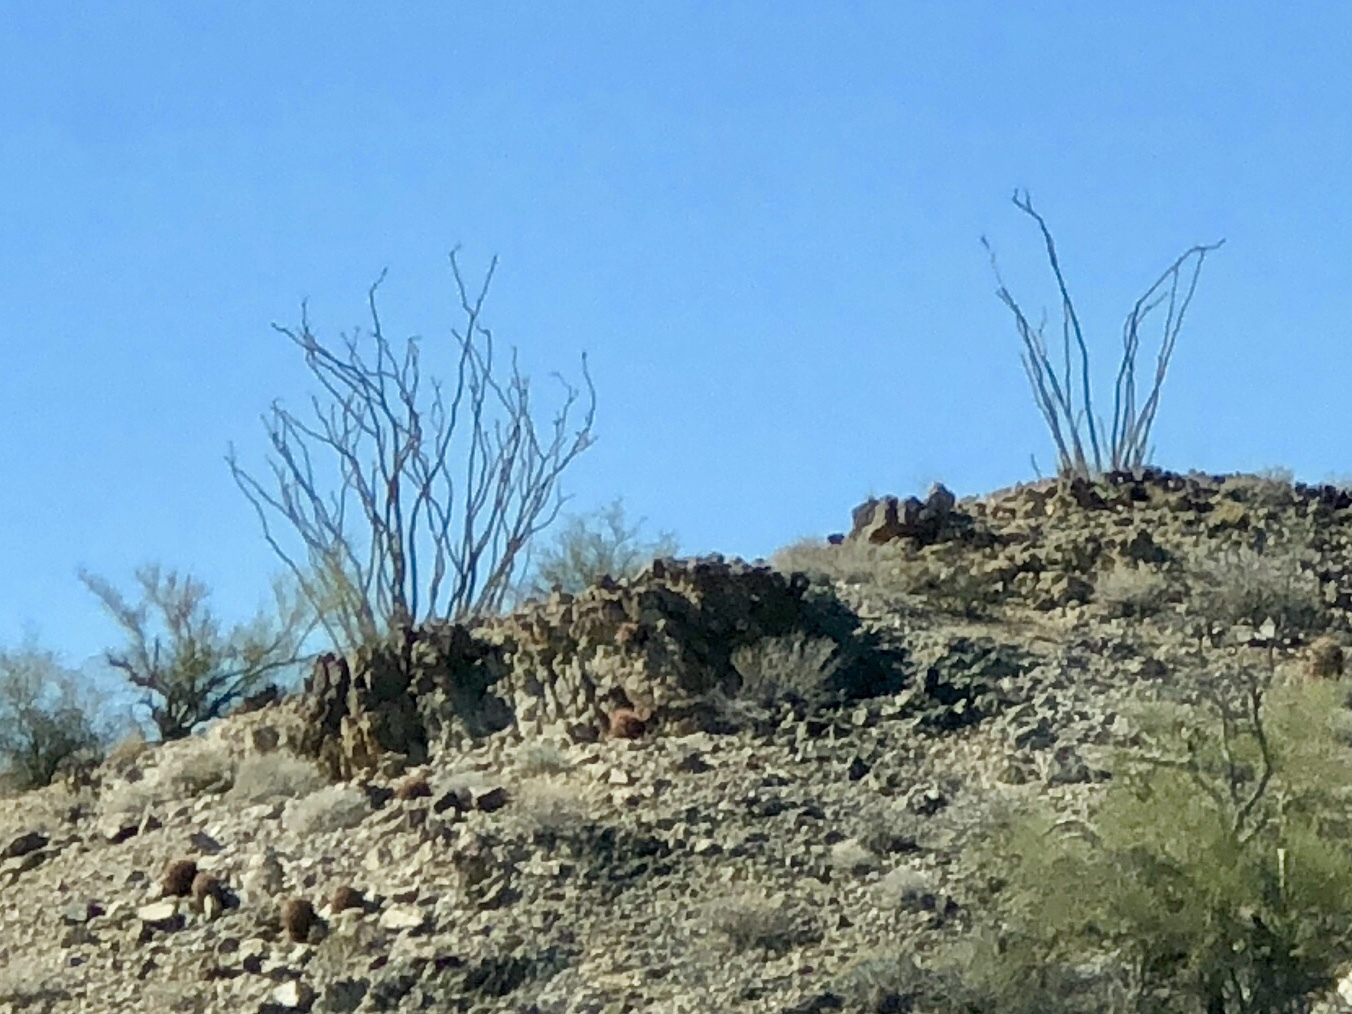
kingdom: Plantae
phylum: Tracheophyta
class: Magnoliopsida
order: Ericales
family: Fouquieriaceae
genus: Fouquieria
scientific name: Fouquieria splendens
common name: Vine-cactus
